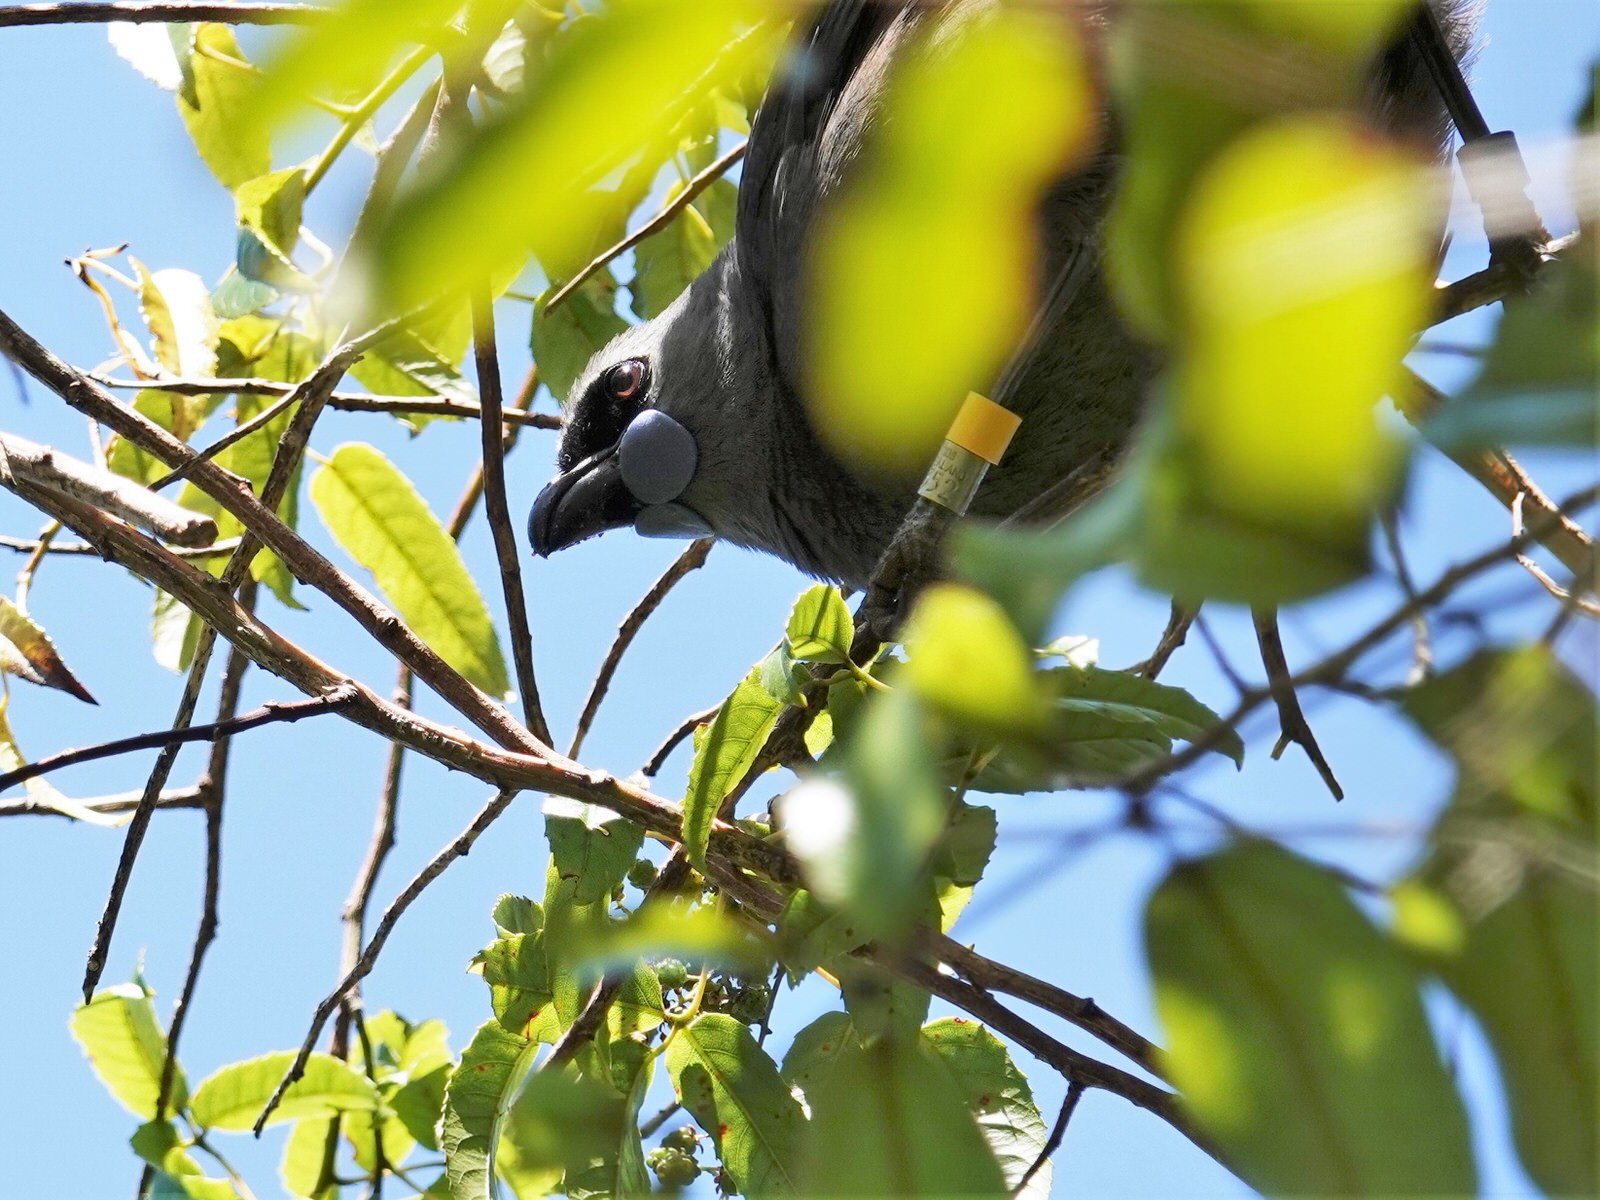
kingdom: Animalia
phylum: Chordata
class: Aves
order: Passeriformes
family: Callaeatidae
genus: Callaeas
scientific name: Callaeas cinereus
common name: South island kokako
